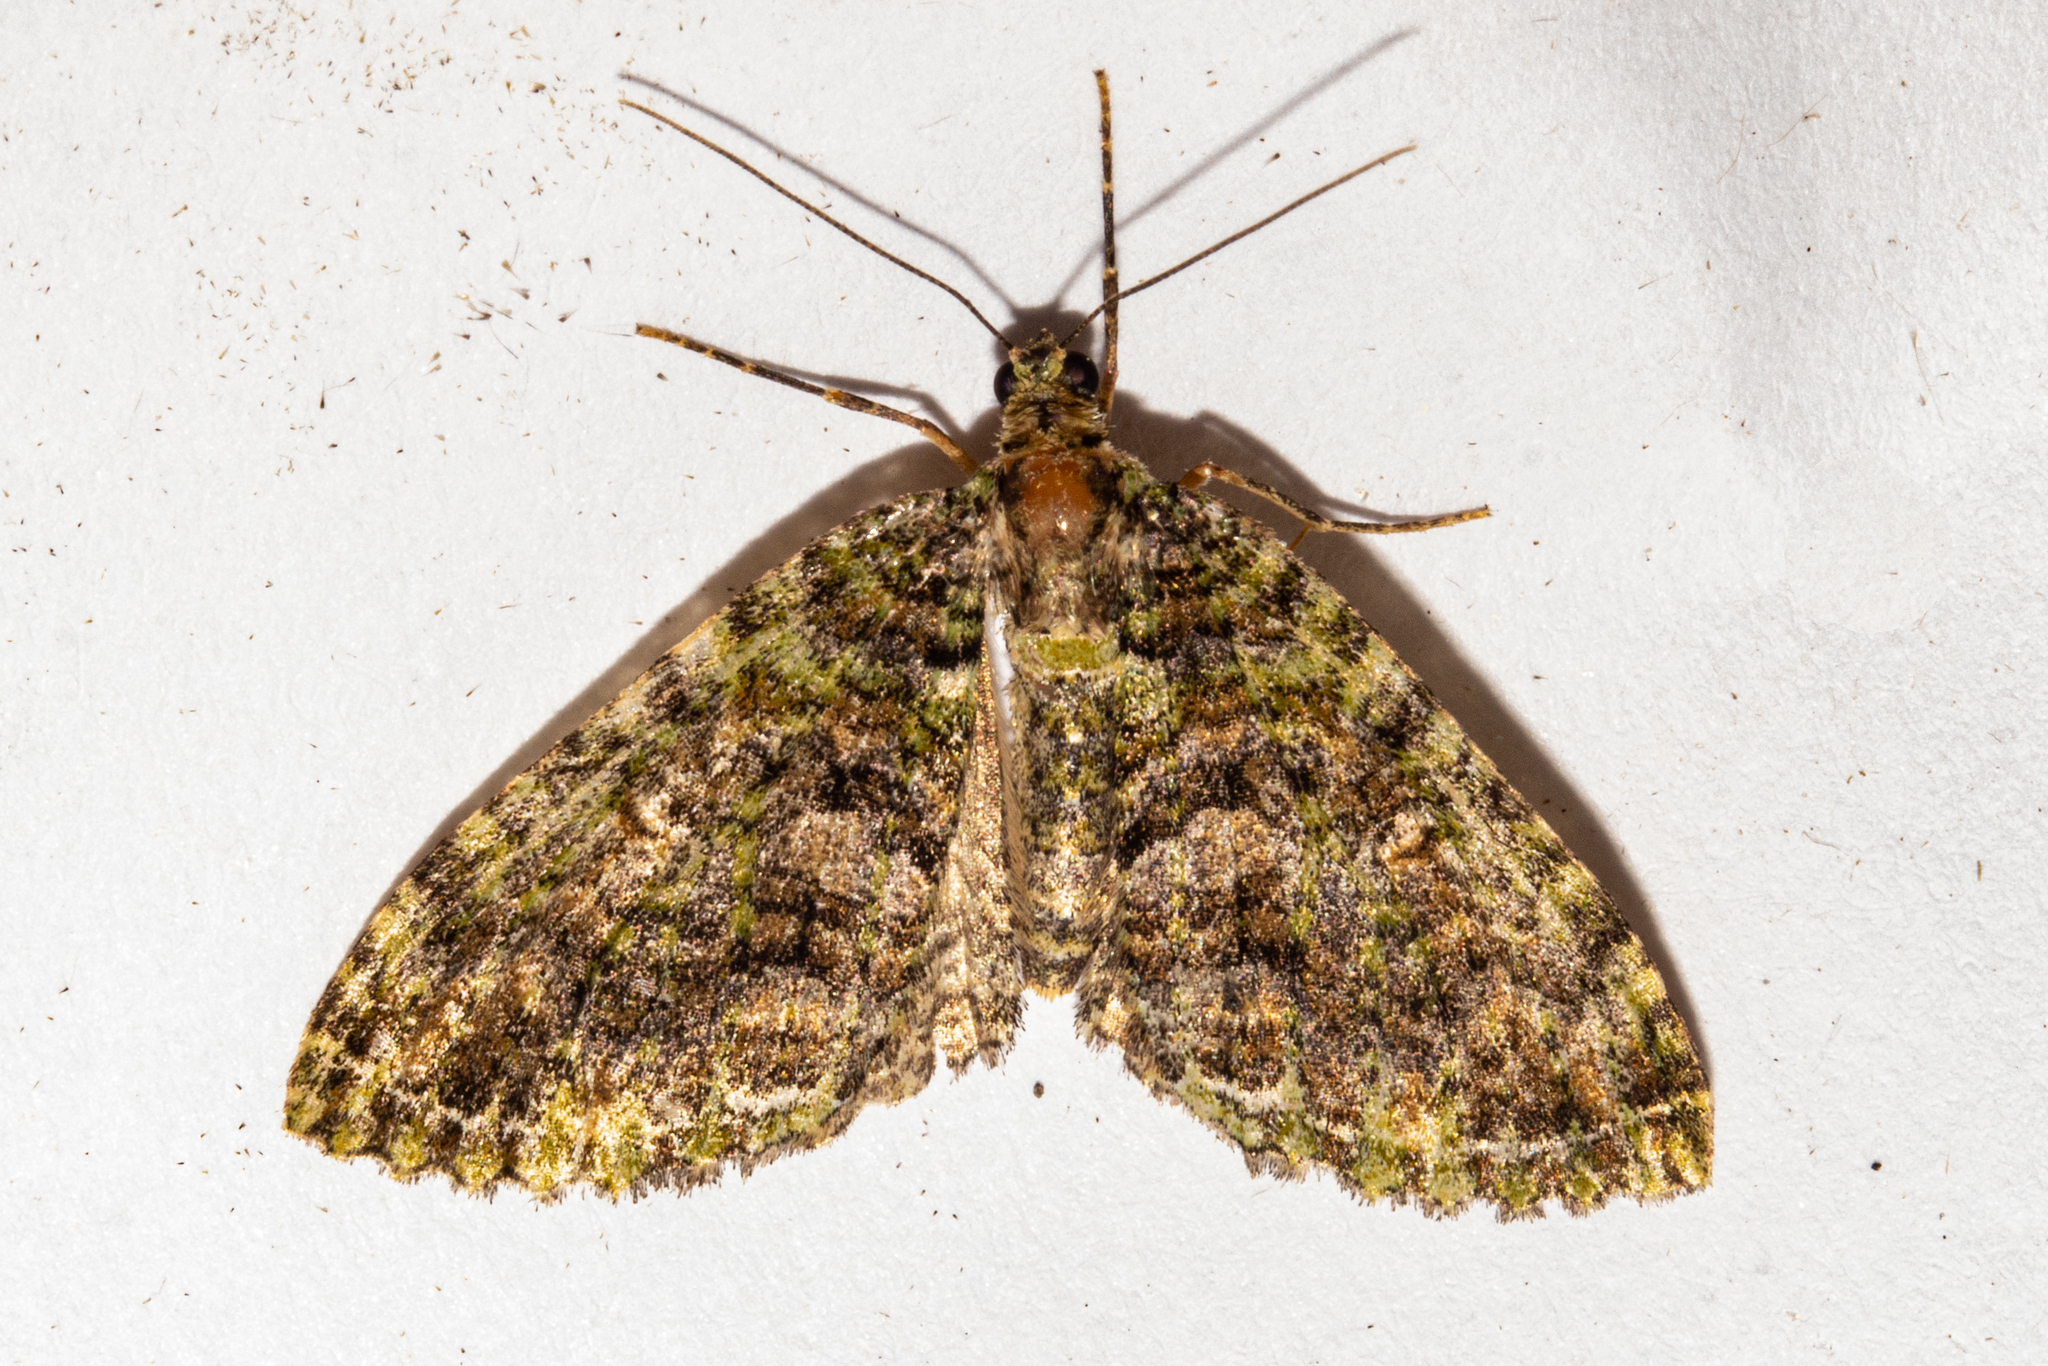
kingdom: Animalia
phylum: Arthropoda
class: Insecta
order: Lepidoptera
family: Geometridae
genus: Austrocidaria
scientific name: Austrocidaria similata
